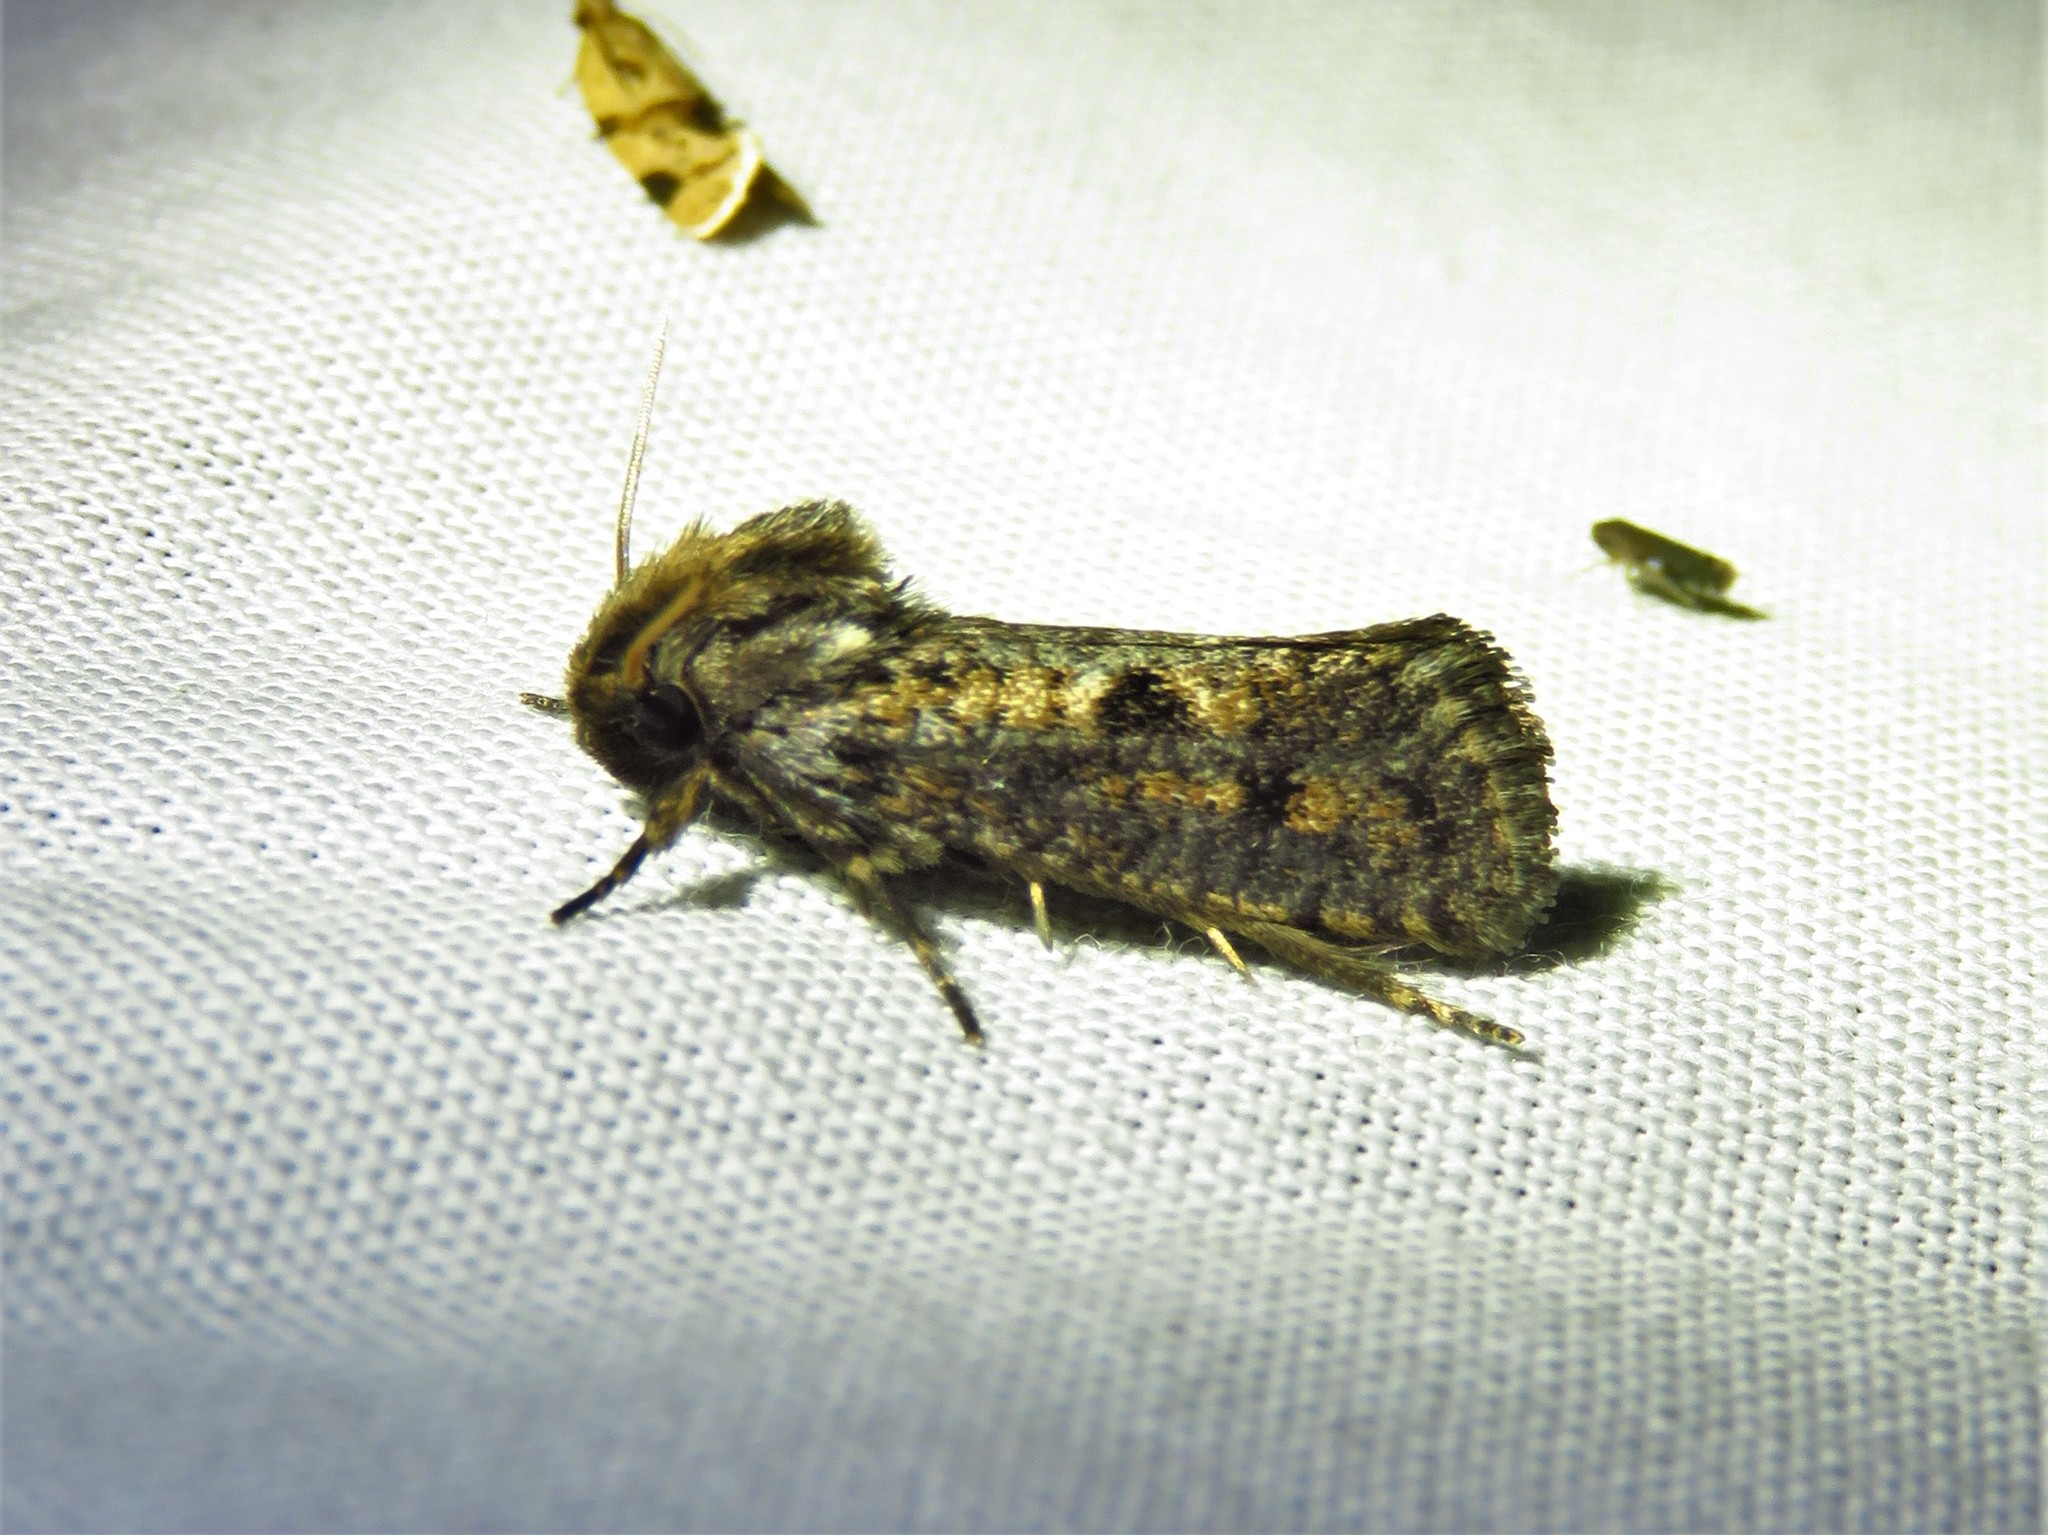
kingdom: Animalia
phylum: Arthropoda
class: Insecta
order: Lepidoptera
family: Tineidae
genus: Acrolophus
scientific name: Acrolophus popeanella
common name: Clemens' grass tubeworm moth
